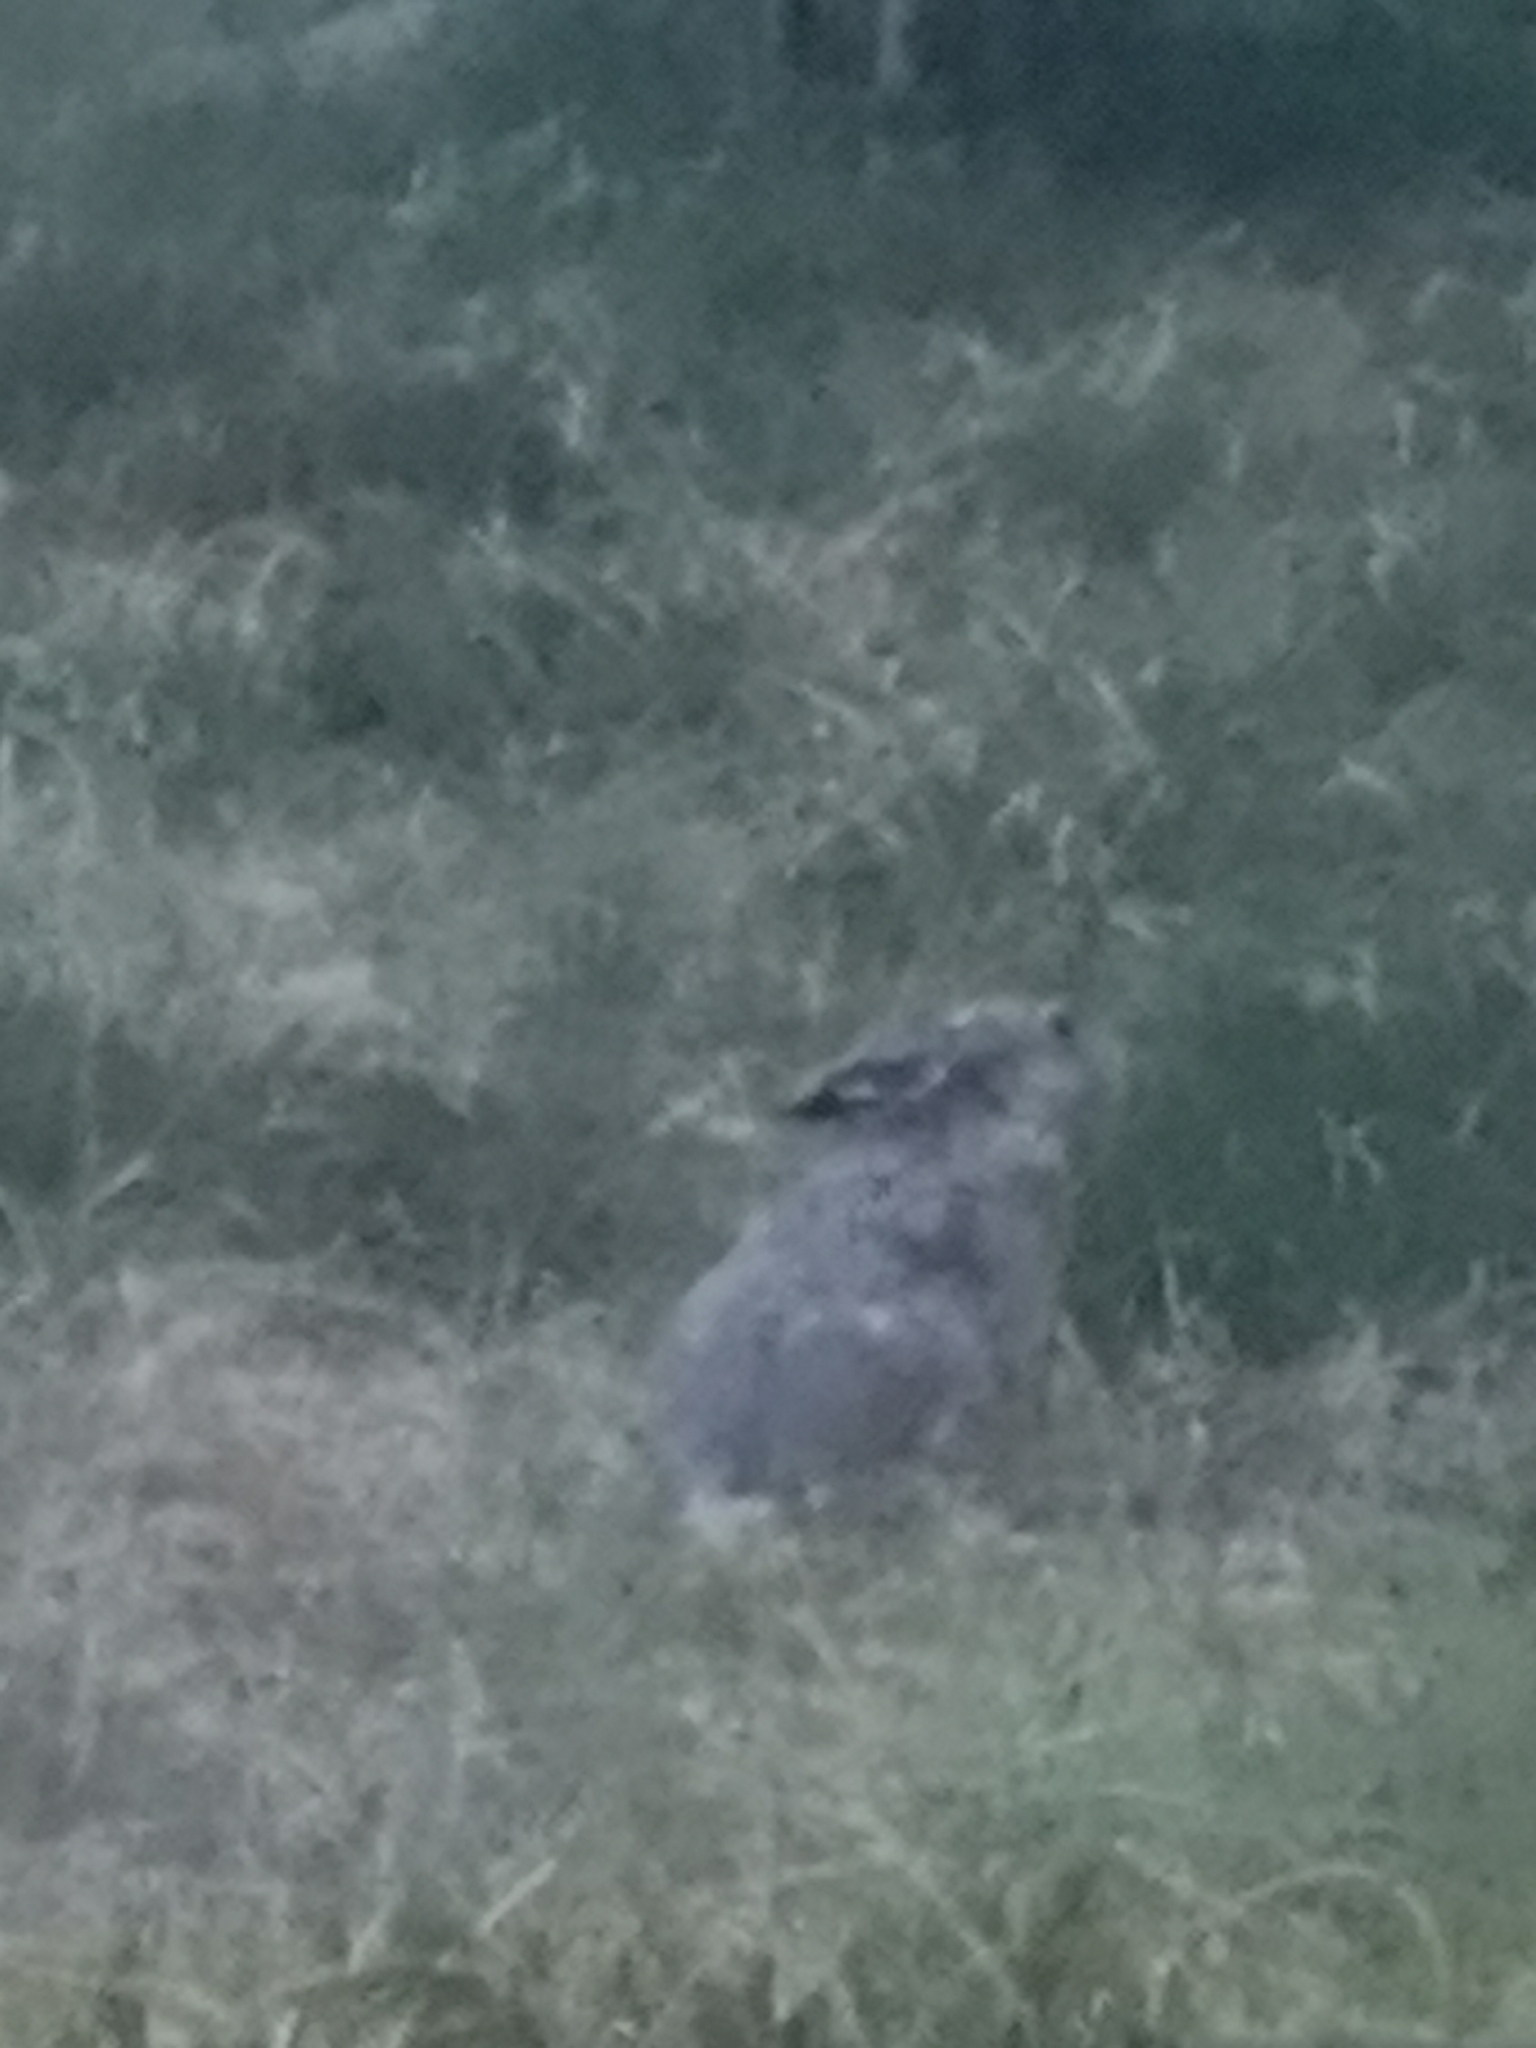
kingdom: Animalia
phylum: Chordata
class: Mammalia
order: Lagomorpha
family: Leporidae
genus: Lepus
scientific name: Lepus europaeus
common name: European hare
